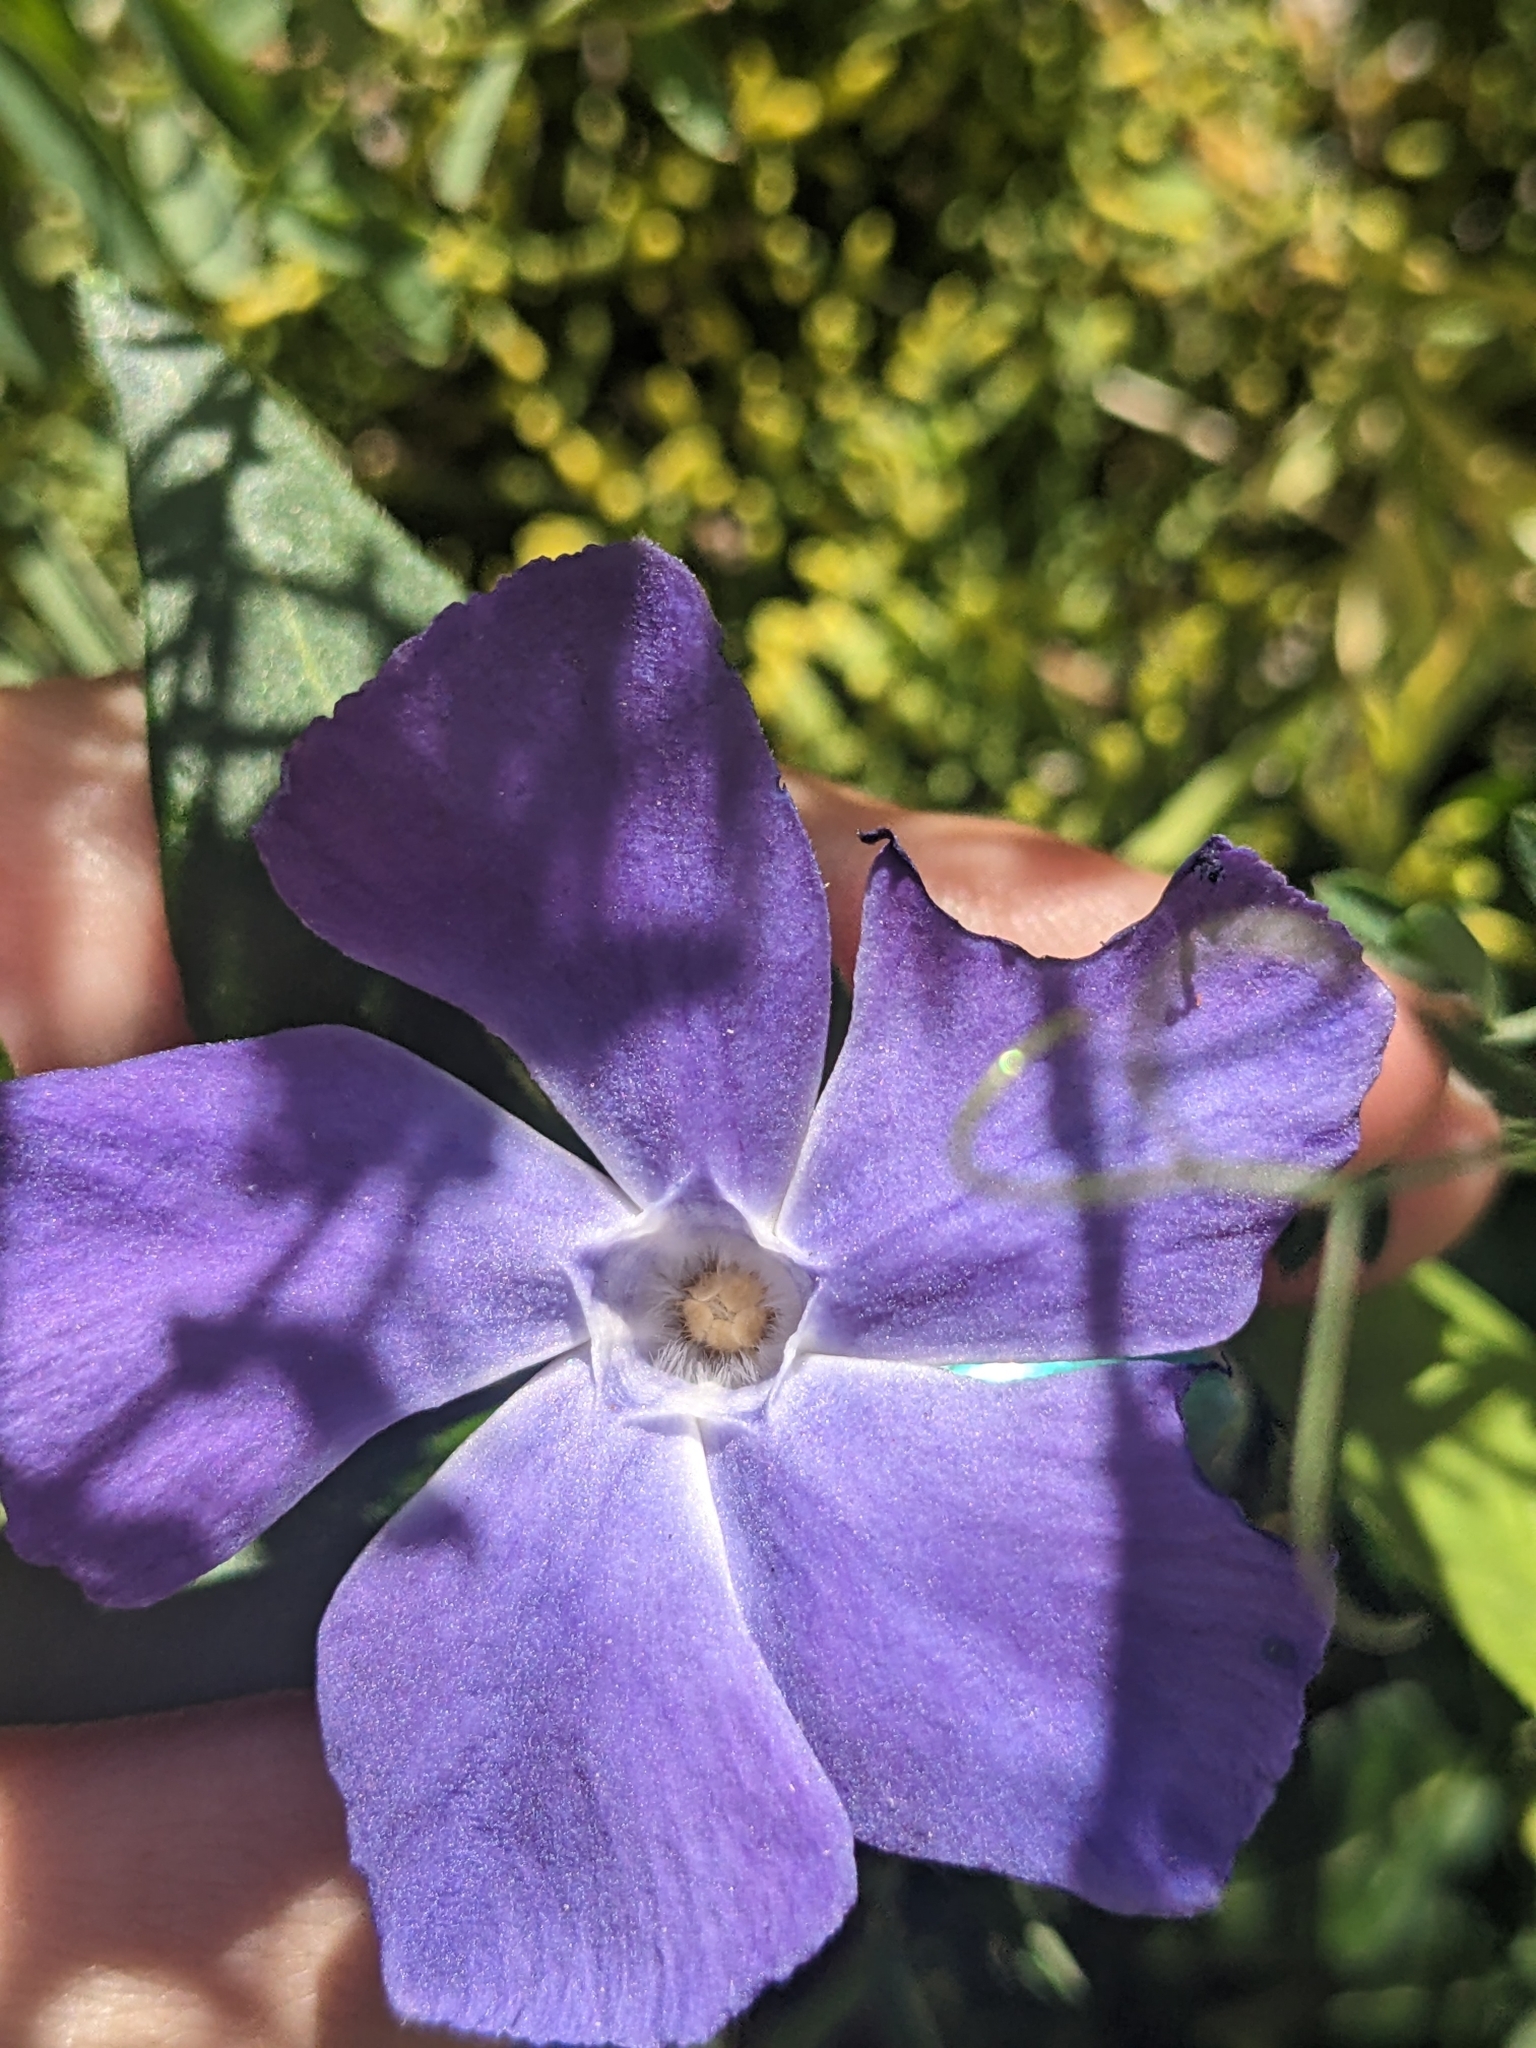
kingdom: Plantae
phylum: Tracheophyta
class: Magnoliopsida
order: Gentianales
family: Apocynaceae
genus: Vinca
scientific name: Vinca major
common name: Greater periwinkle
